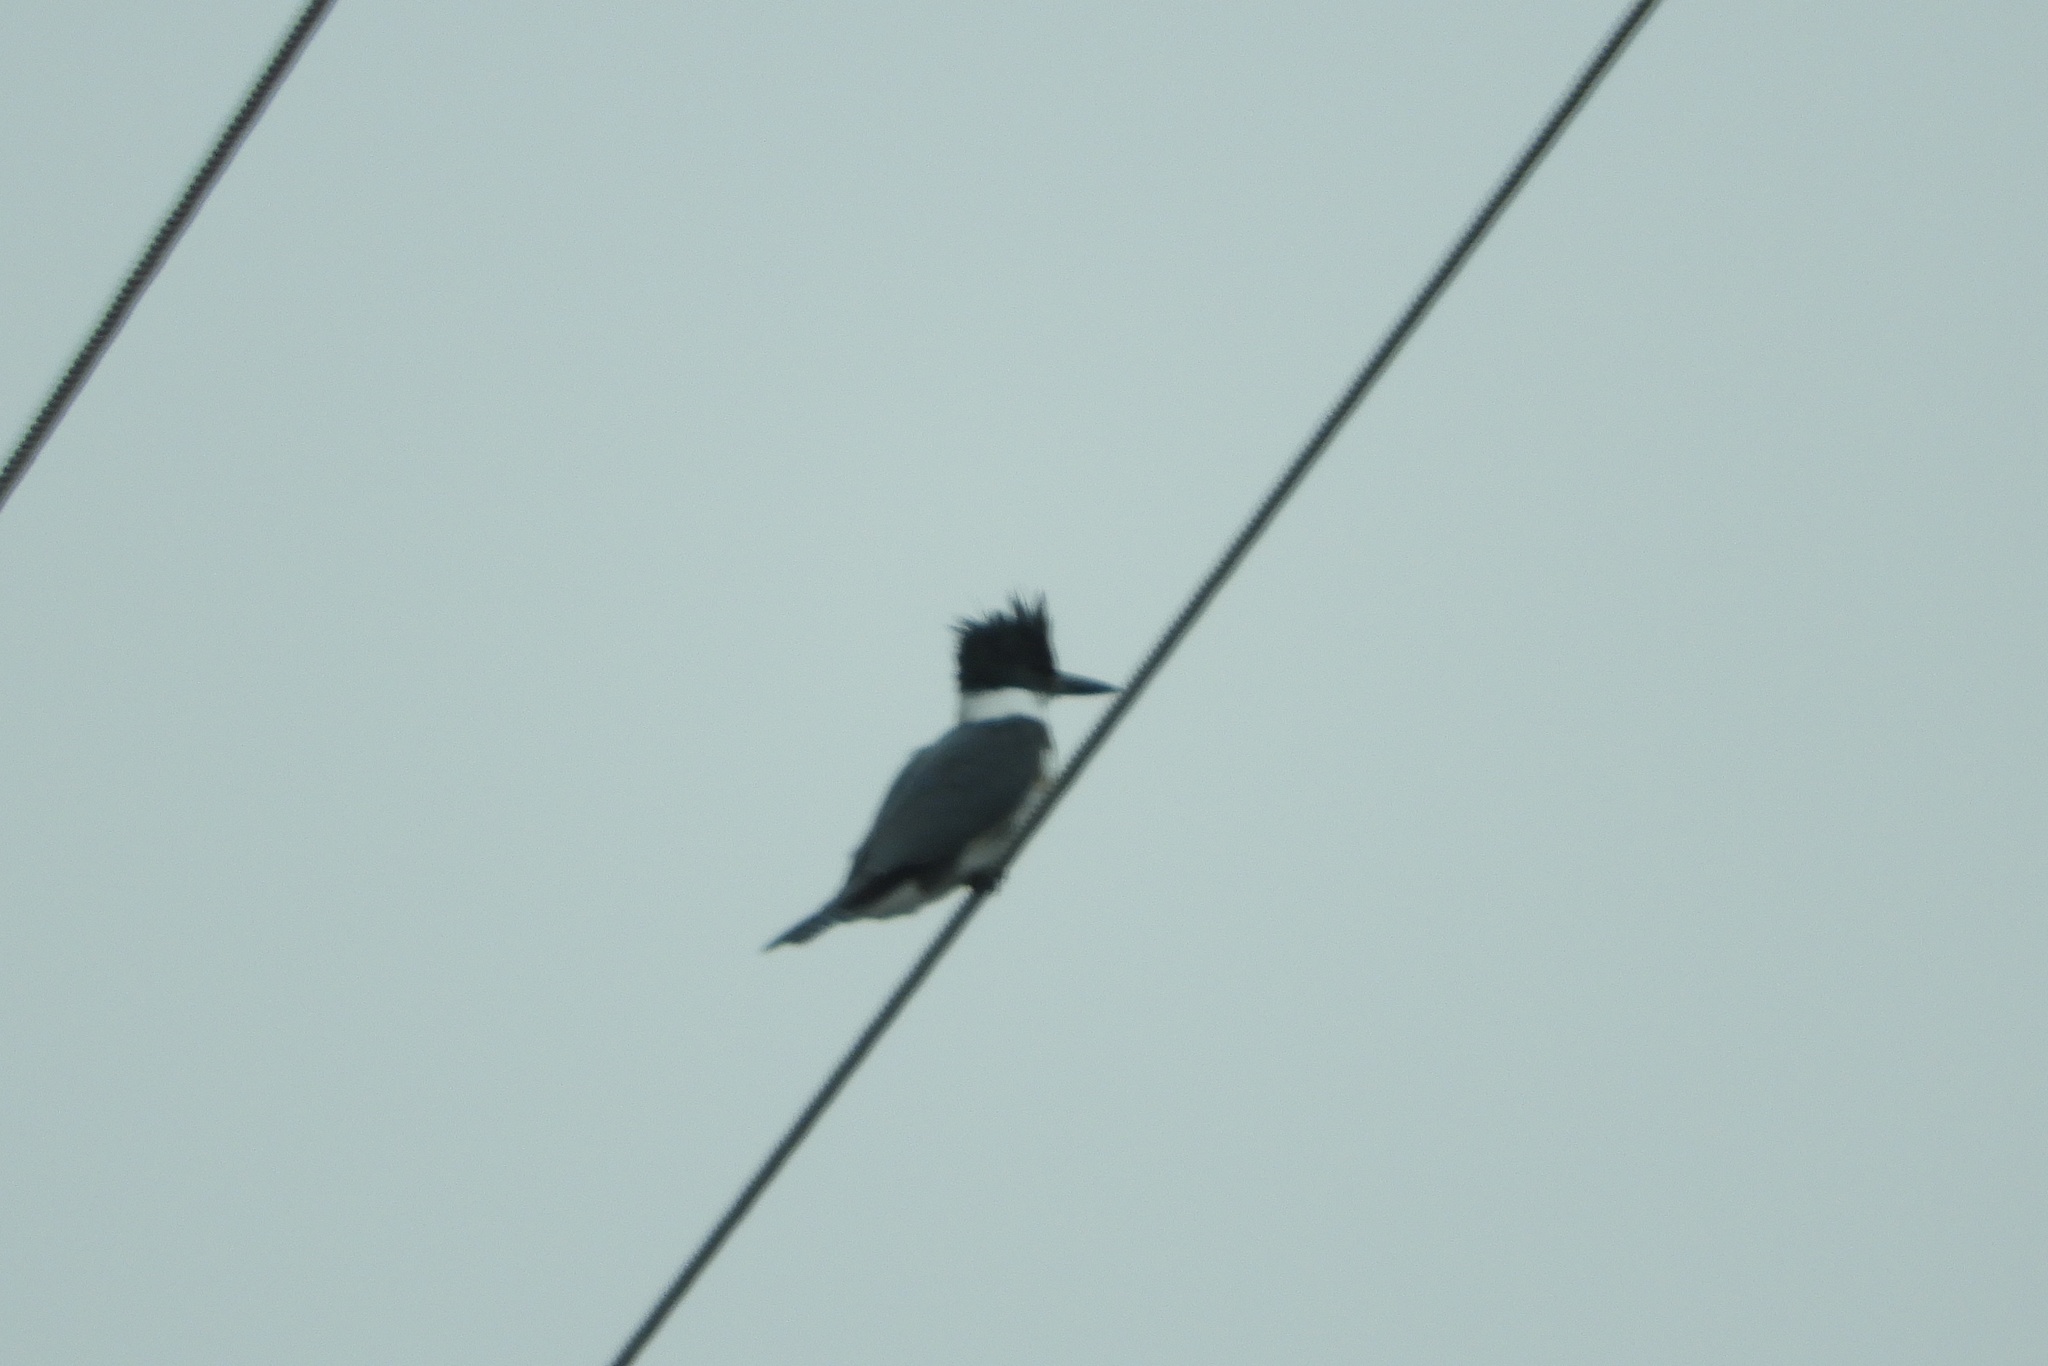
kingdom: Animalia
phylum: Chordata
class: Aves
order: Coraciiformes
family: Alcedinidae
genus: Megaceryle
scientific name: Megaceryle alcyon
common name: Belted kingfisher
